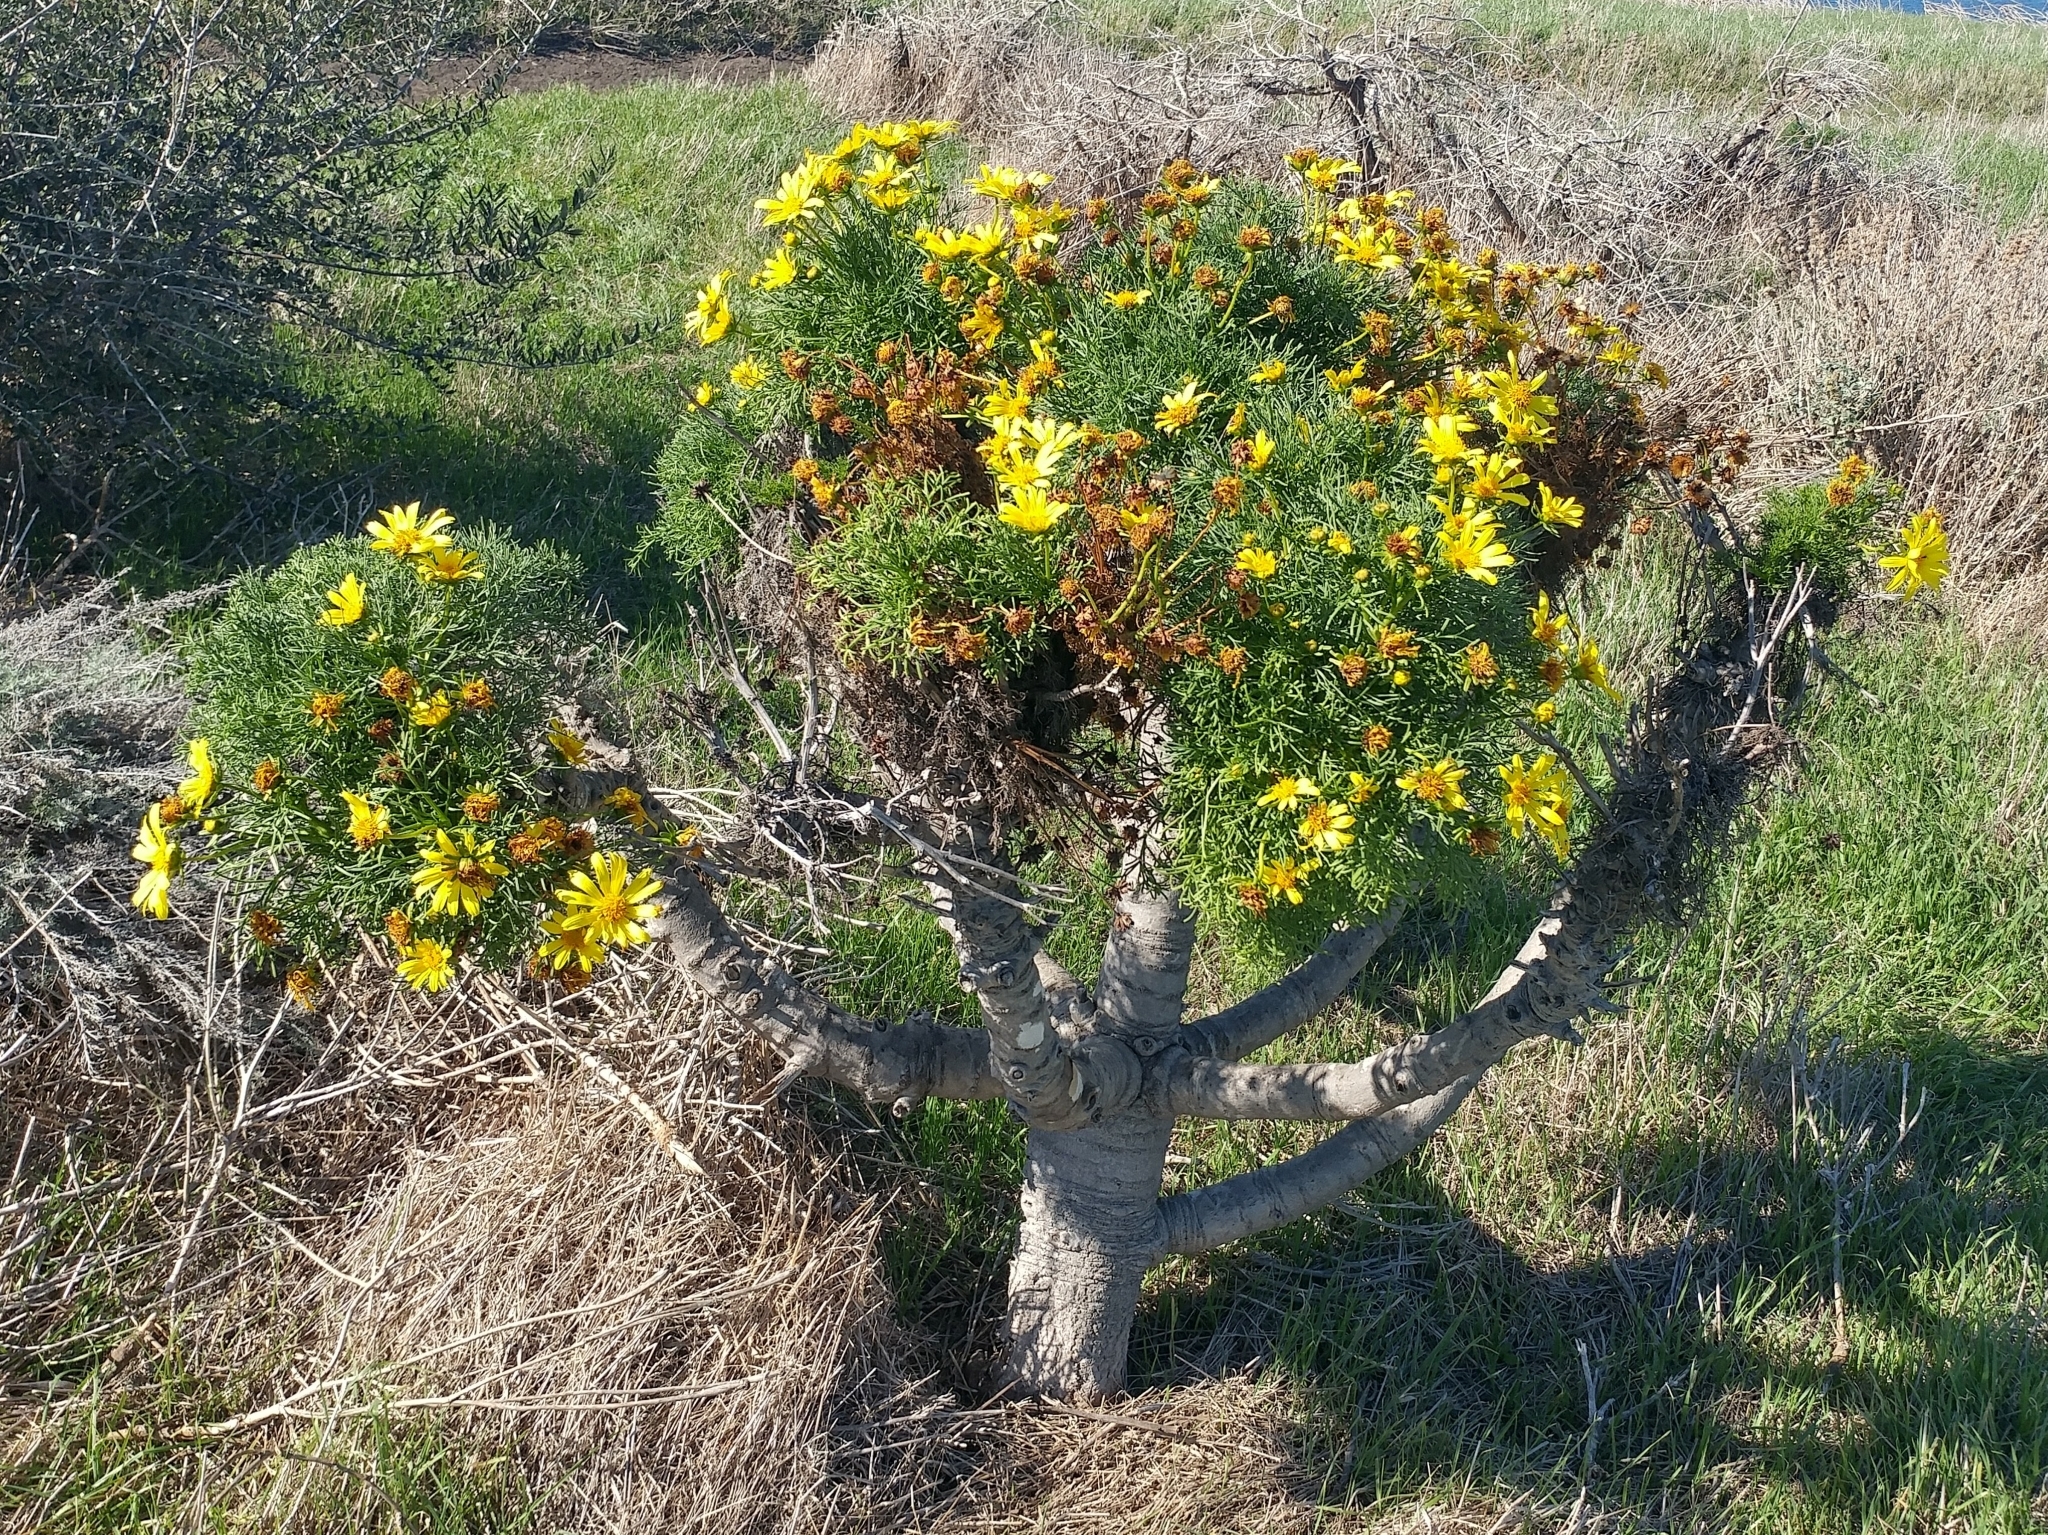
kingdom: Plantae
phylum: Tracheophyta
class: Magnoliopsida
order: Asterales
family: Asteraceae
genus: Coreopsis
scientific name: Coreopsis gigantea
